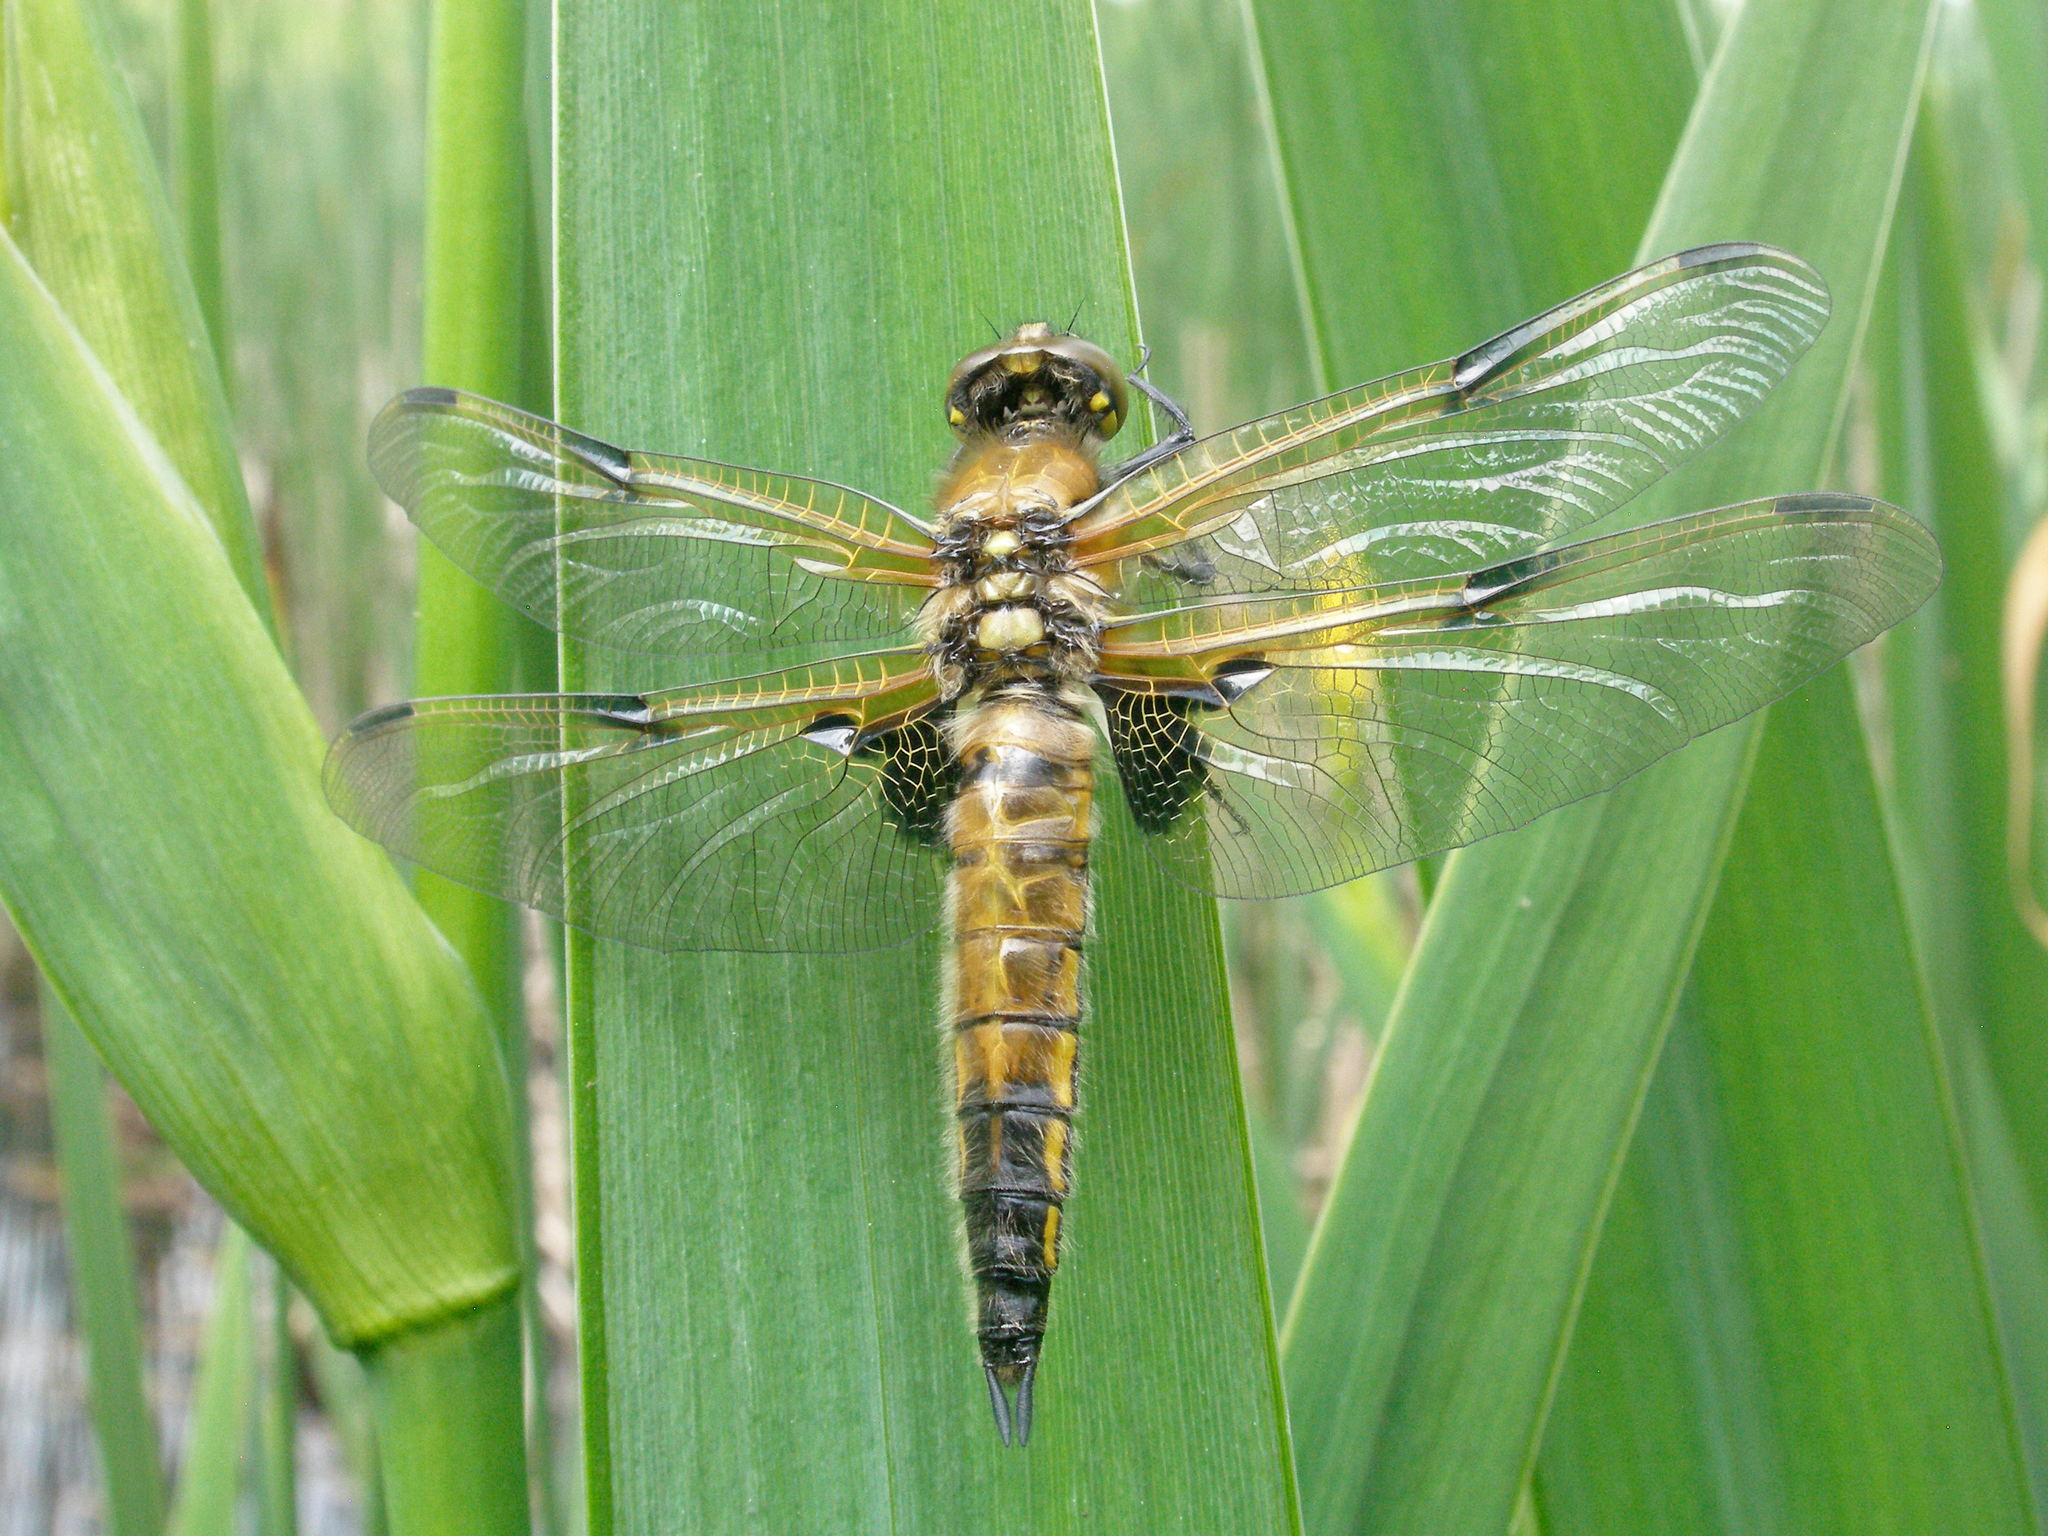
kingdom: Animalia
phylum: Arthropoda
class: Insecta
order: Odonata
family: Libellulidae
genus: Libellula
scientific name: Libellula quadrimaculata
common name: Four-spotted chaser
